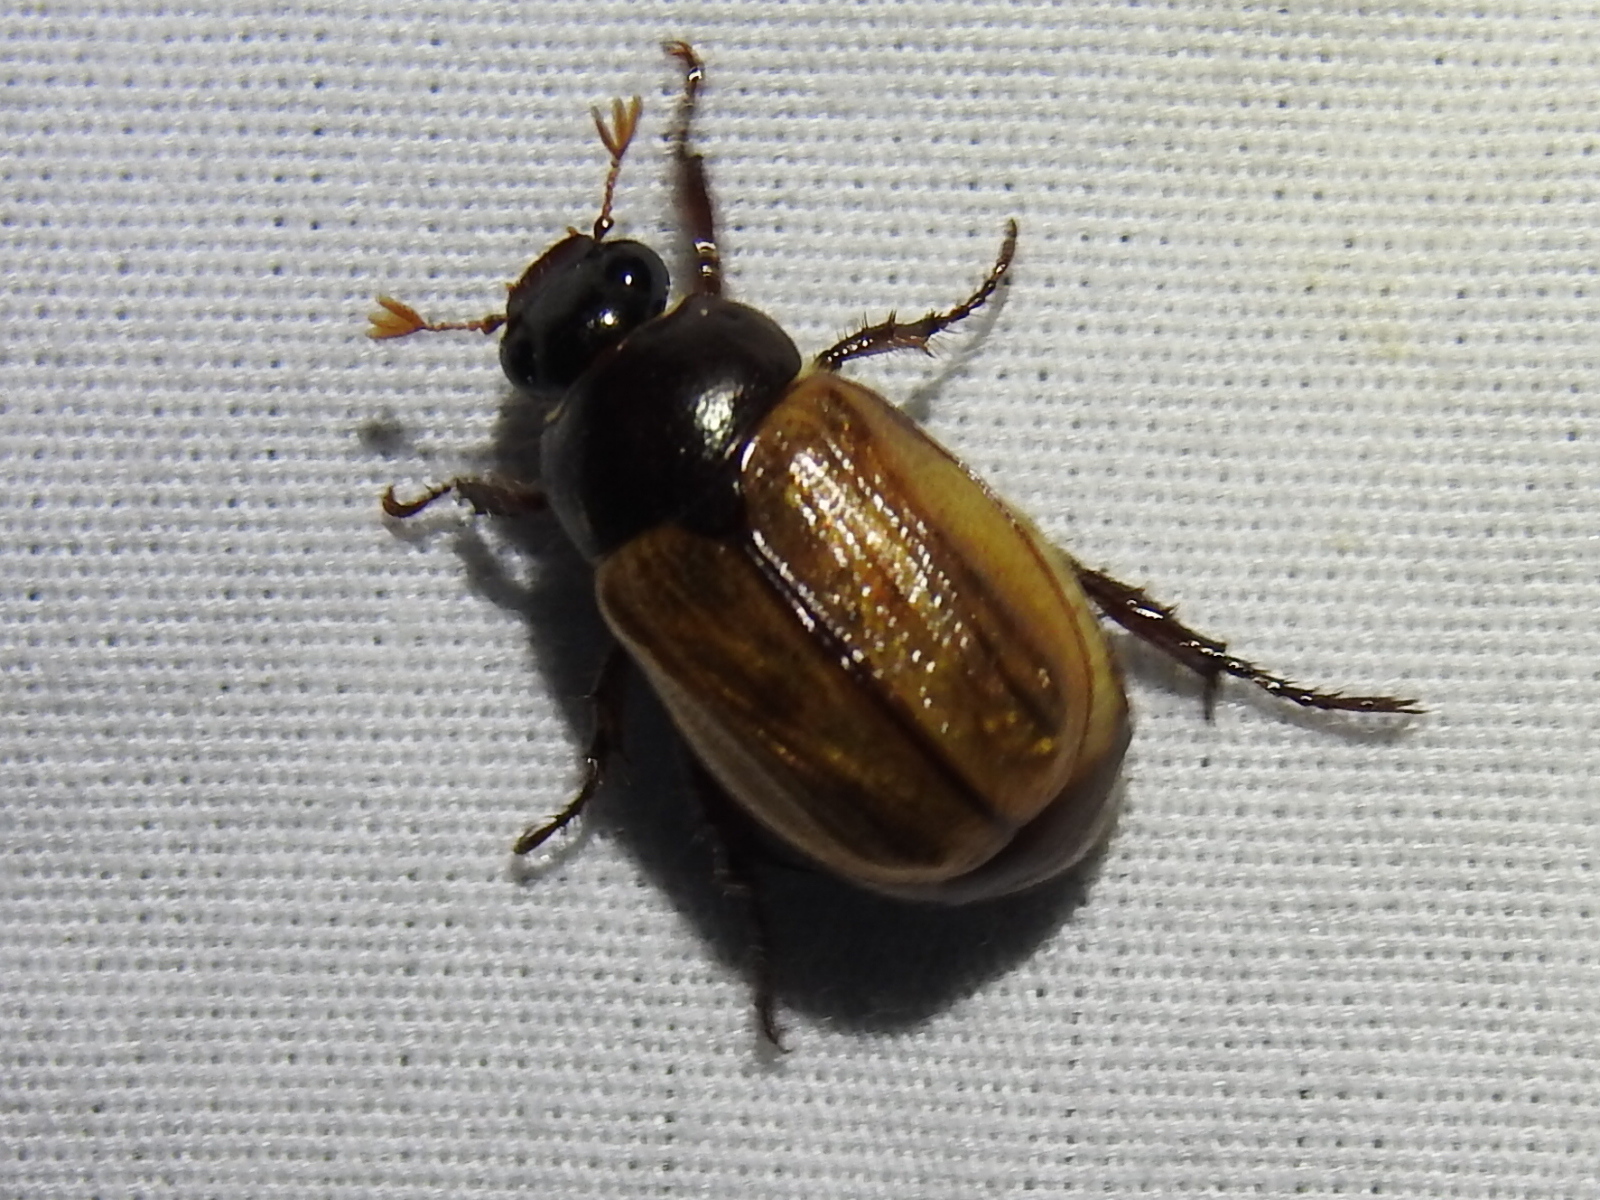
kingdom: Animalia
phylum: Arthropoda
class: Insecta
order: Coleoptera
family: Scarabaeidae
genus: Paranomala
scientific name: Paranomala flavipennis
